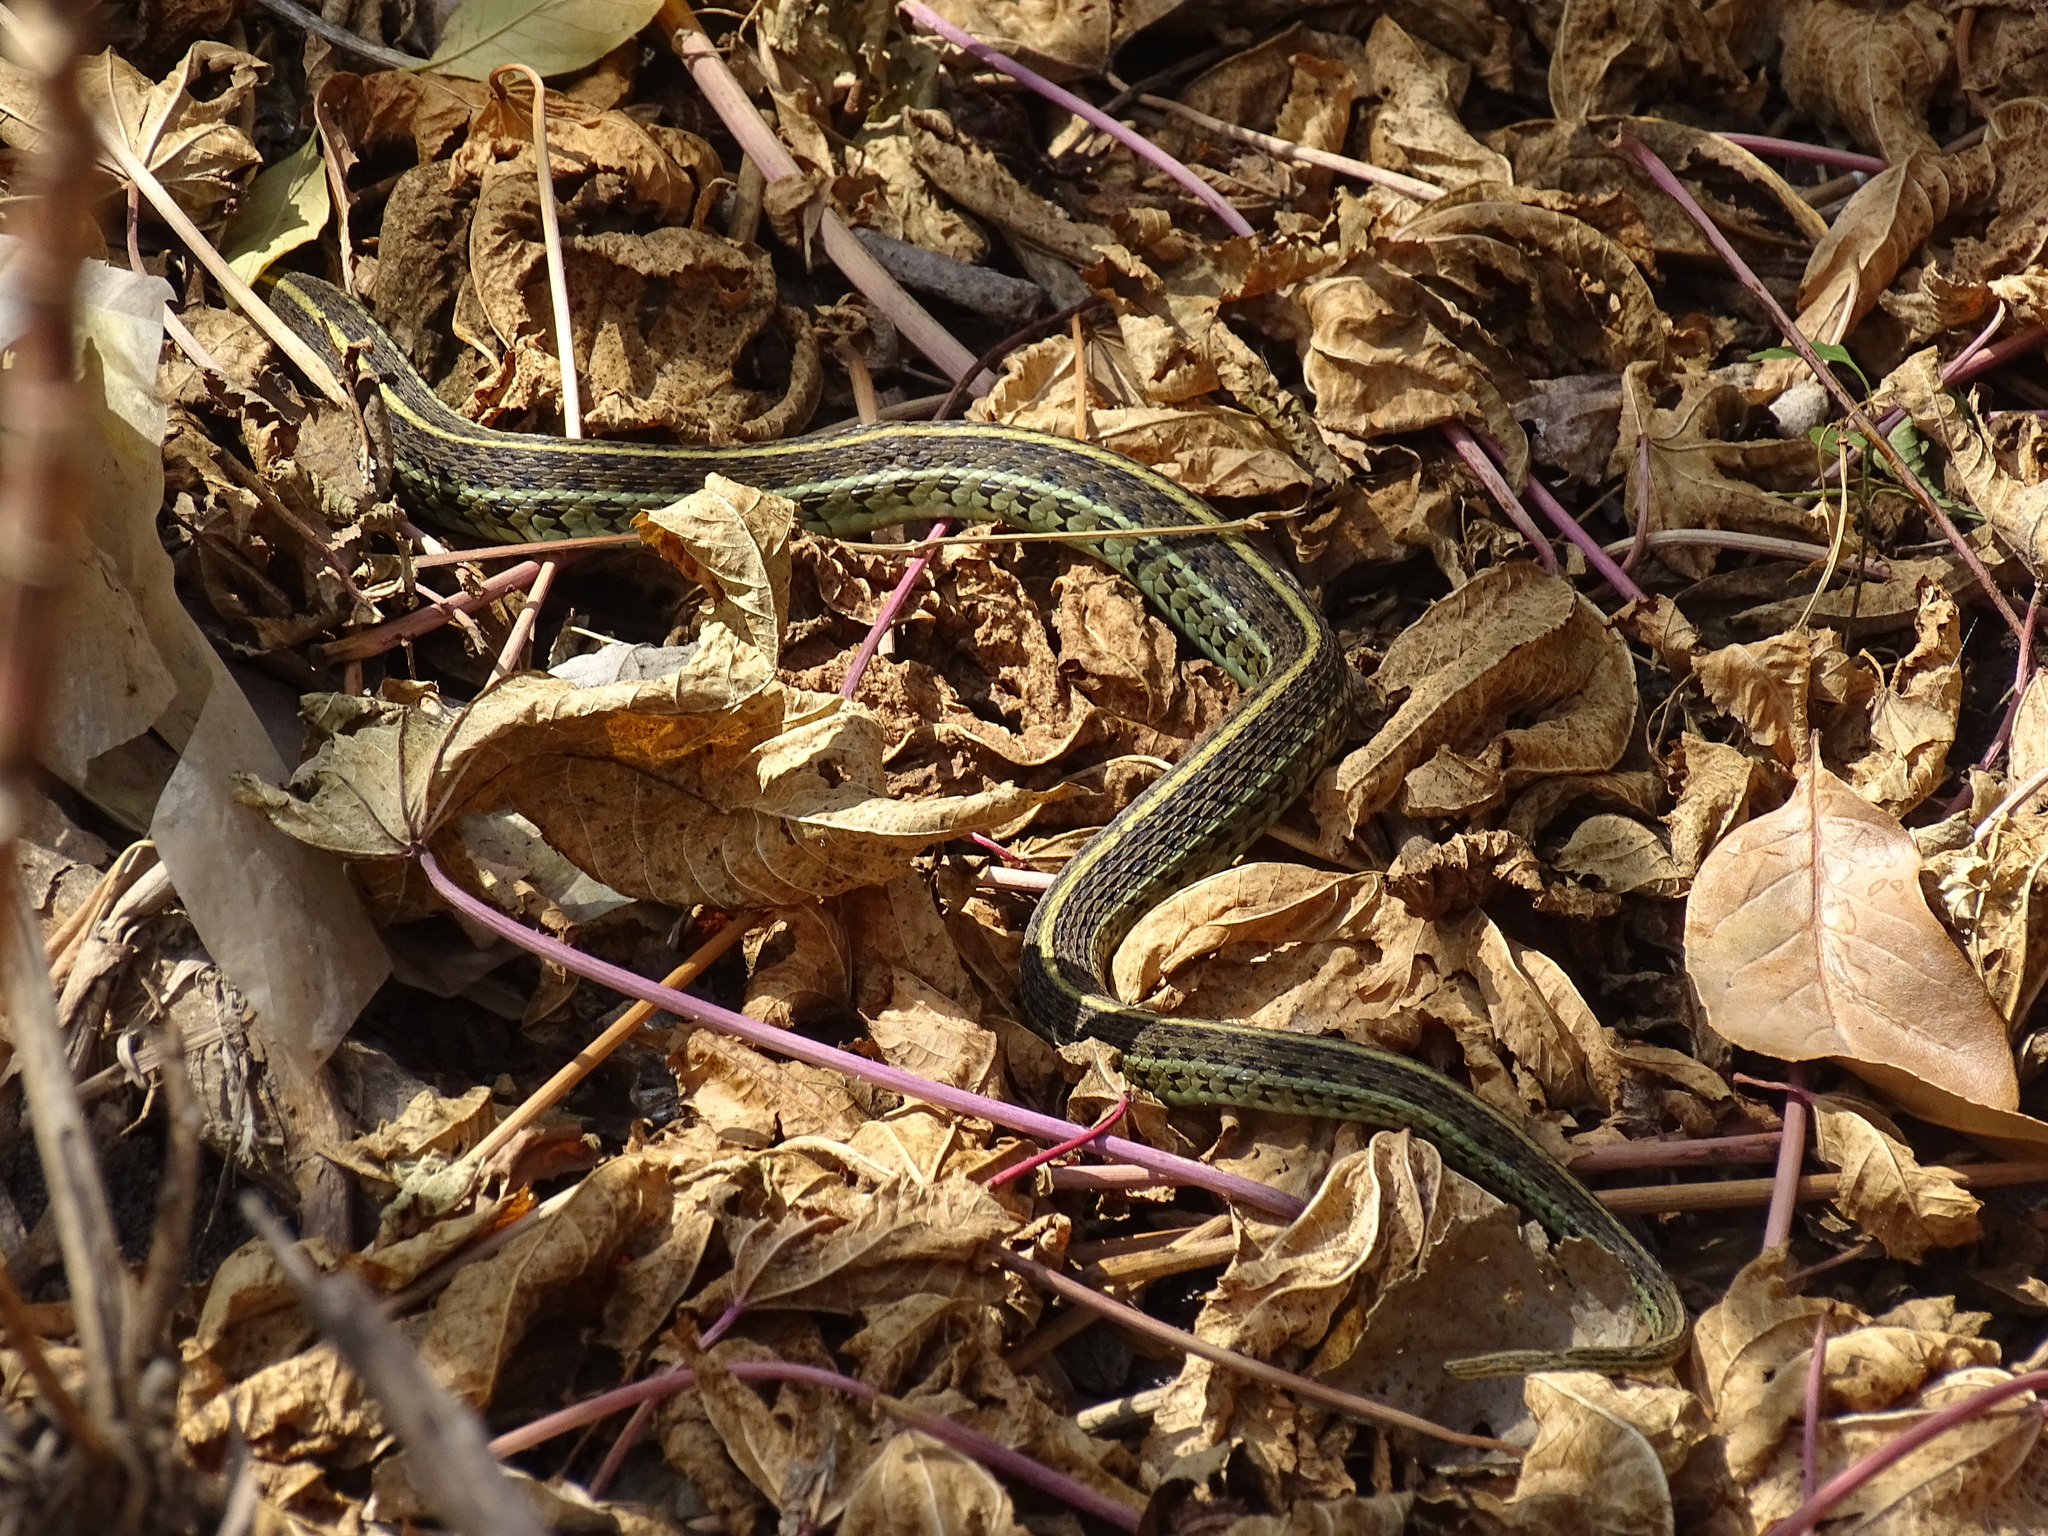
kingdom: Animalia
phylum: Chordata
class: Squamata
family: Colubridae
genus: Thamnophis
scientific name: Thamnophis eques
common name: Mexican garter snake
